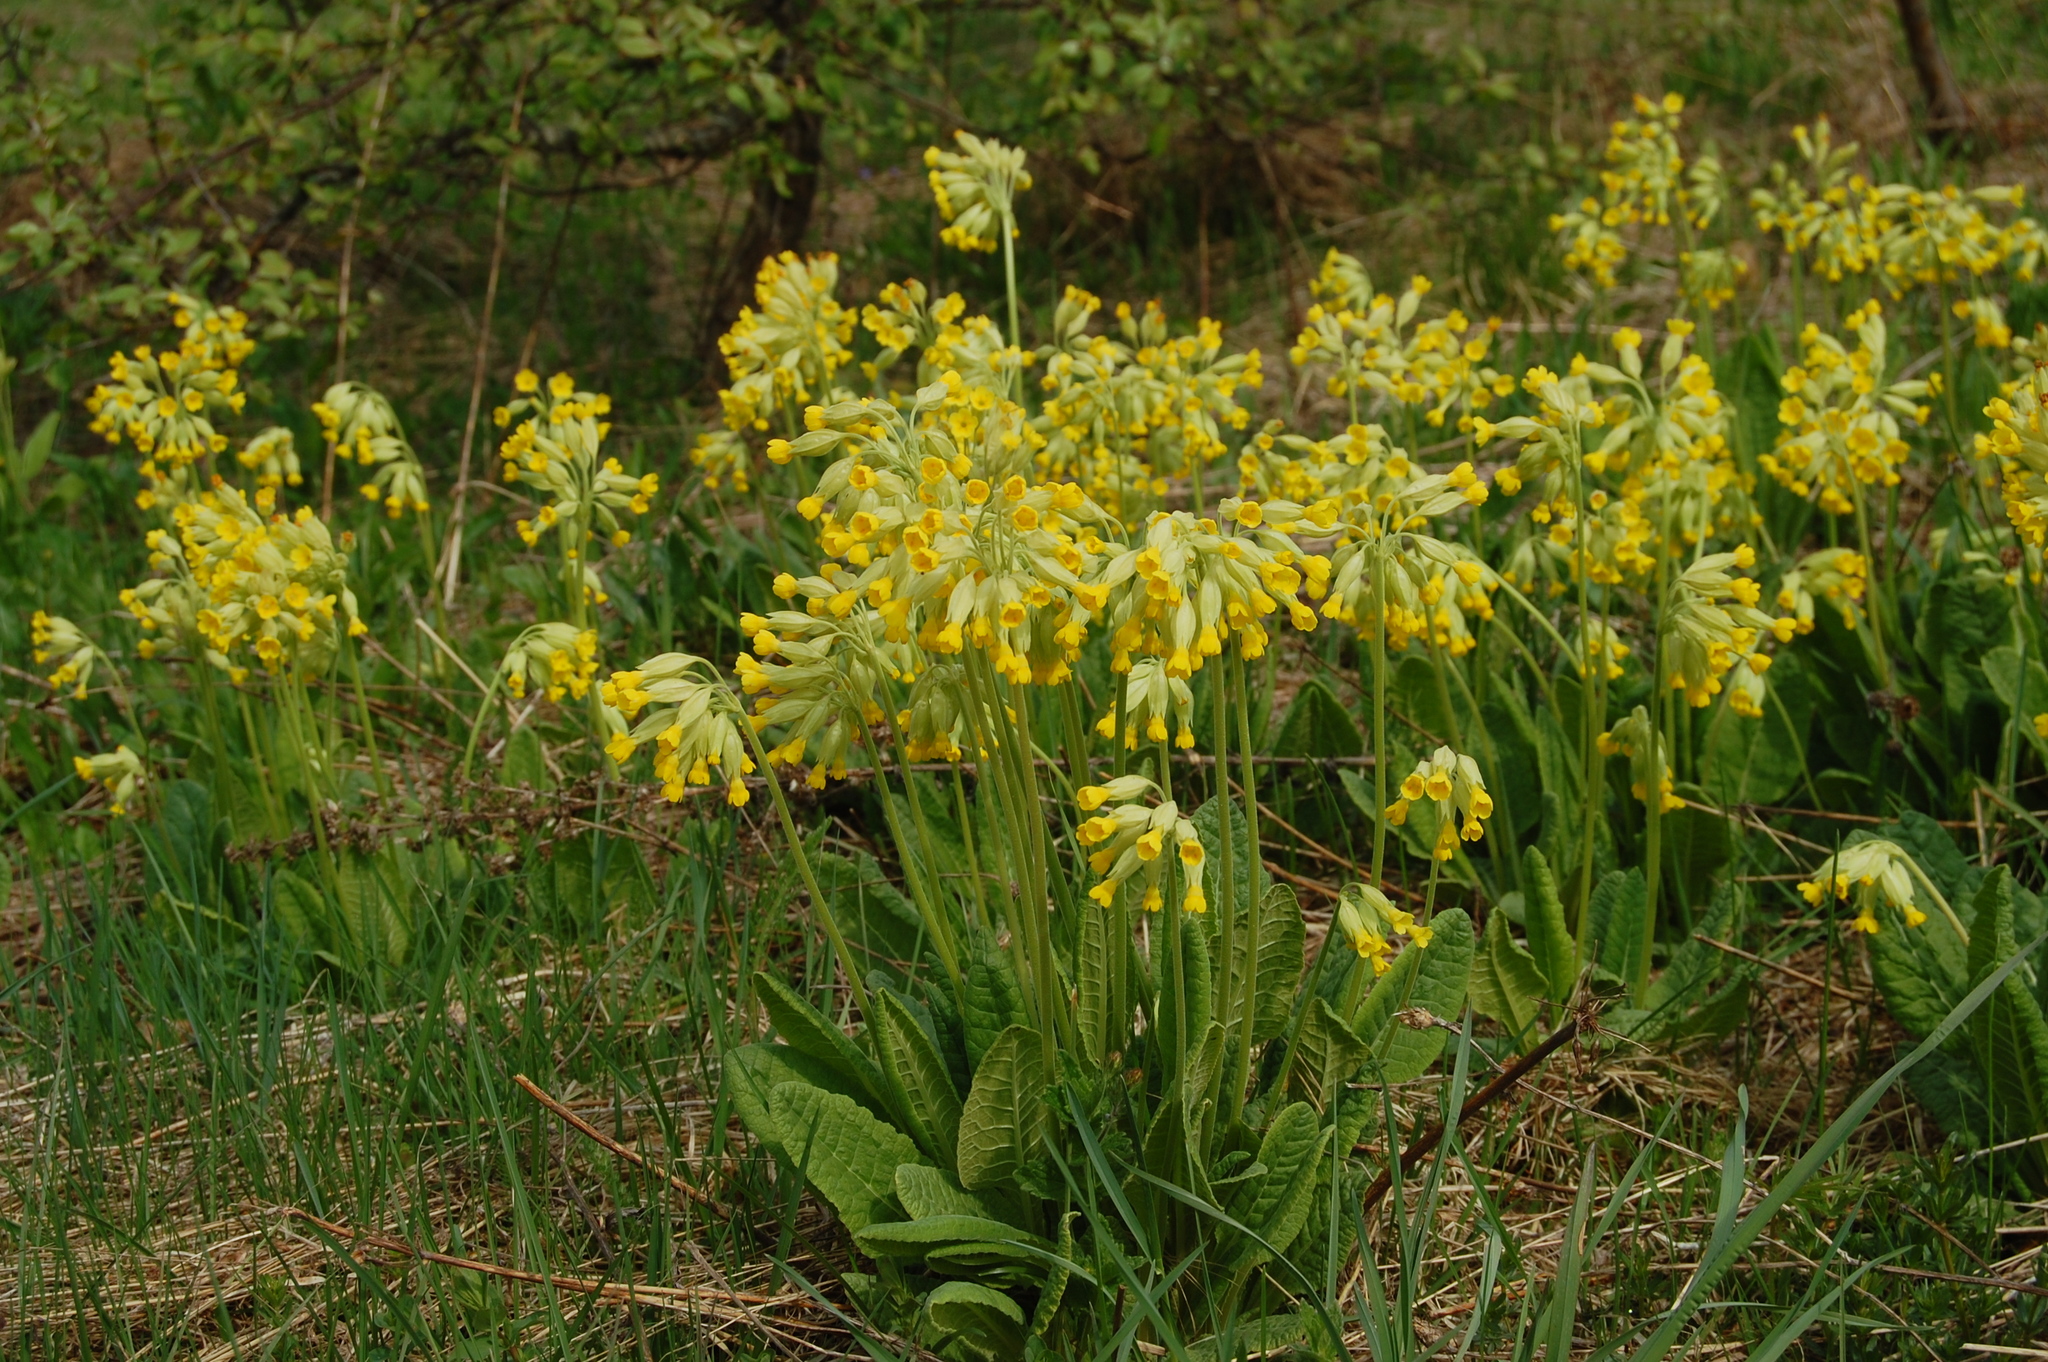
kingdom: Plantae
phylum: Tracheophyta
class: Magnoliopsida
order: Ericales
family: Primulaceae
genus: Primula
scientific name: Primula veris
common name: Cowslip
